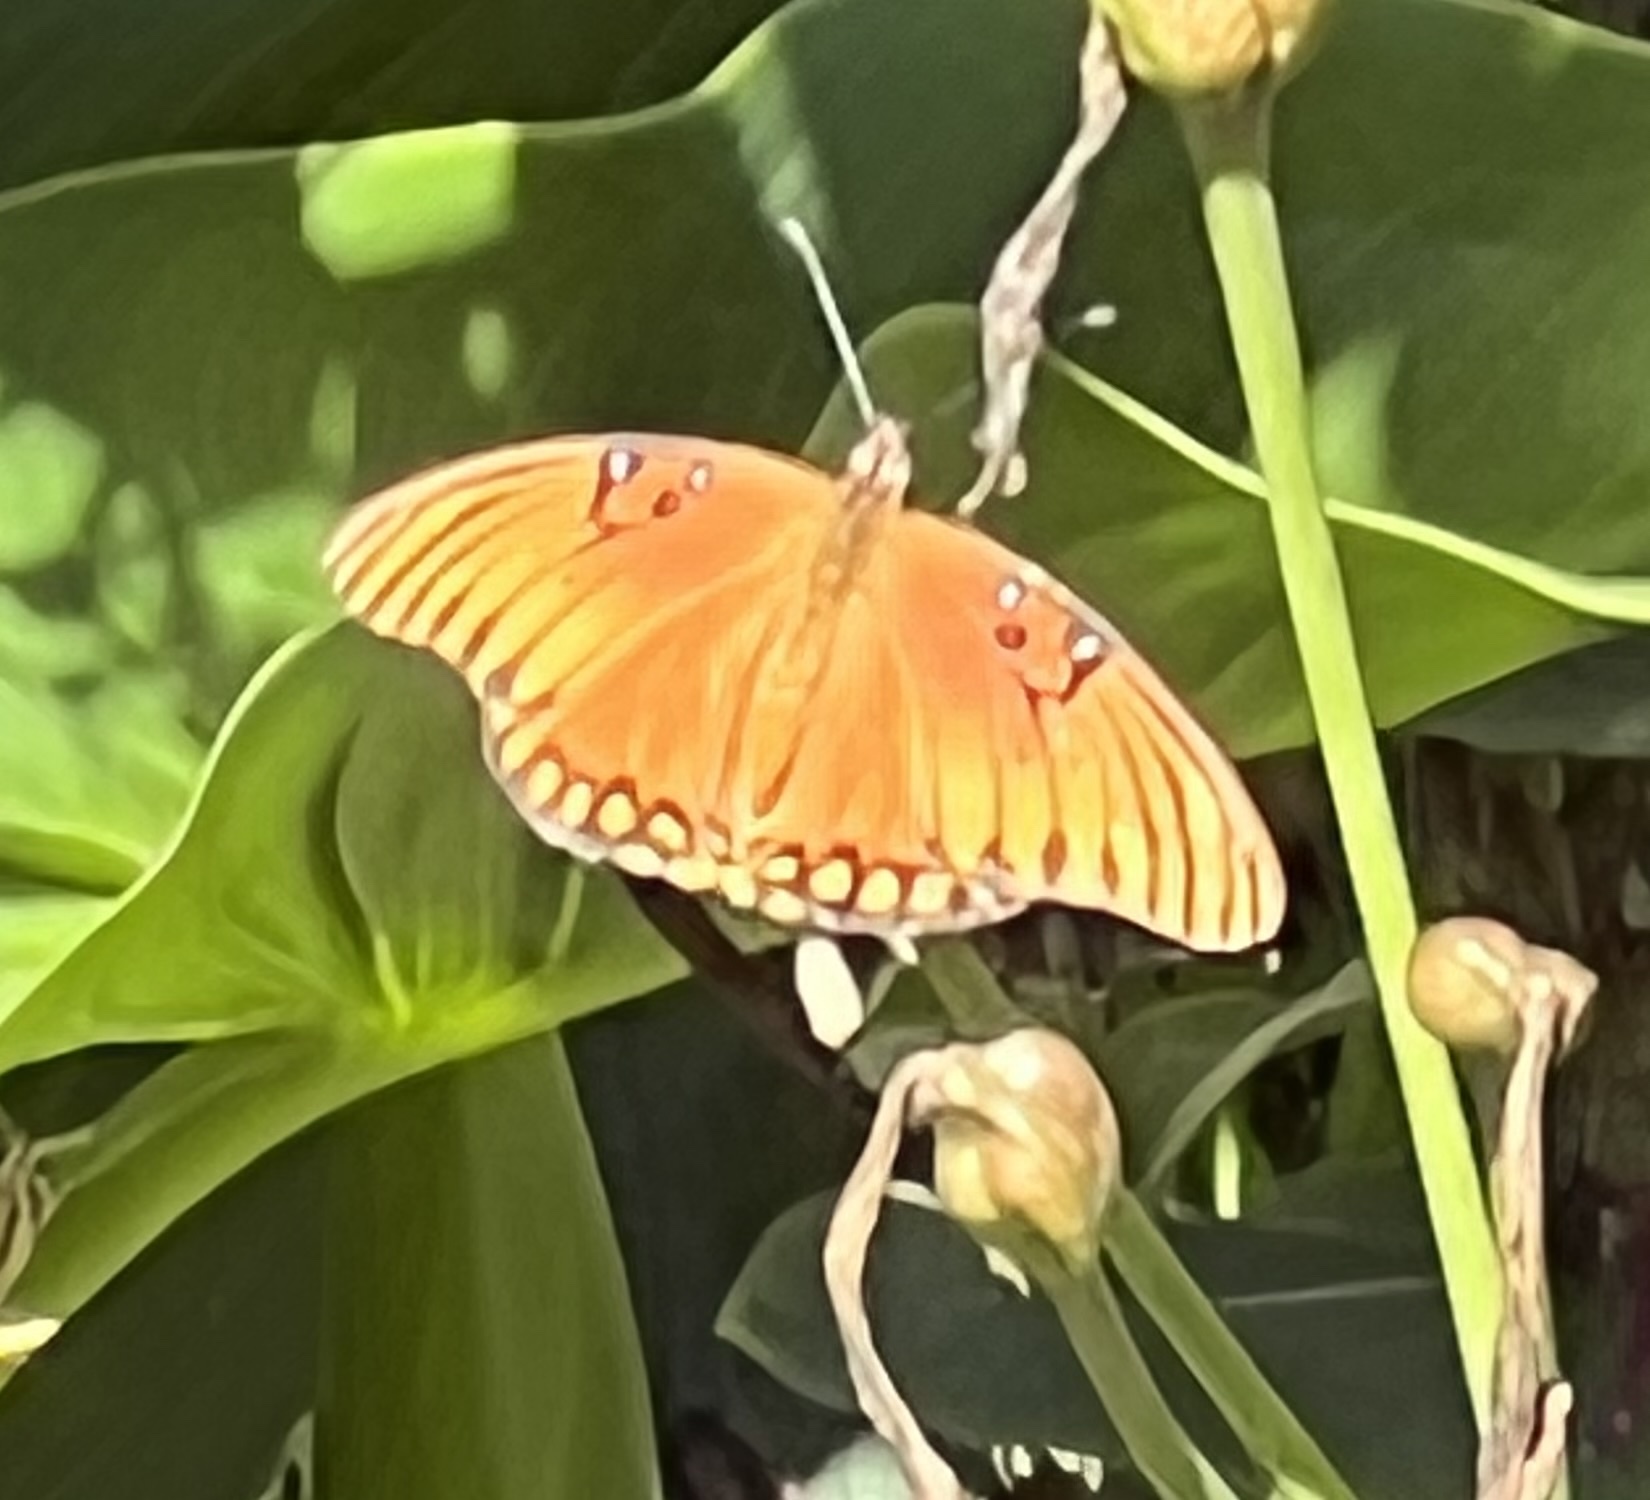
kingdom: Animalia
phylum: Arthropoda
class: Insecta
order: Lepidoptera
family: Nymphalidae
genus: Dione
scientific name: Dione vanillae
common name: Gulf fritillary
